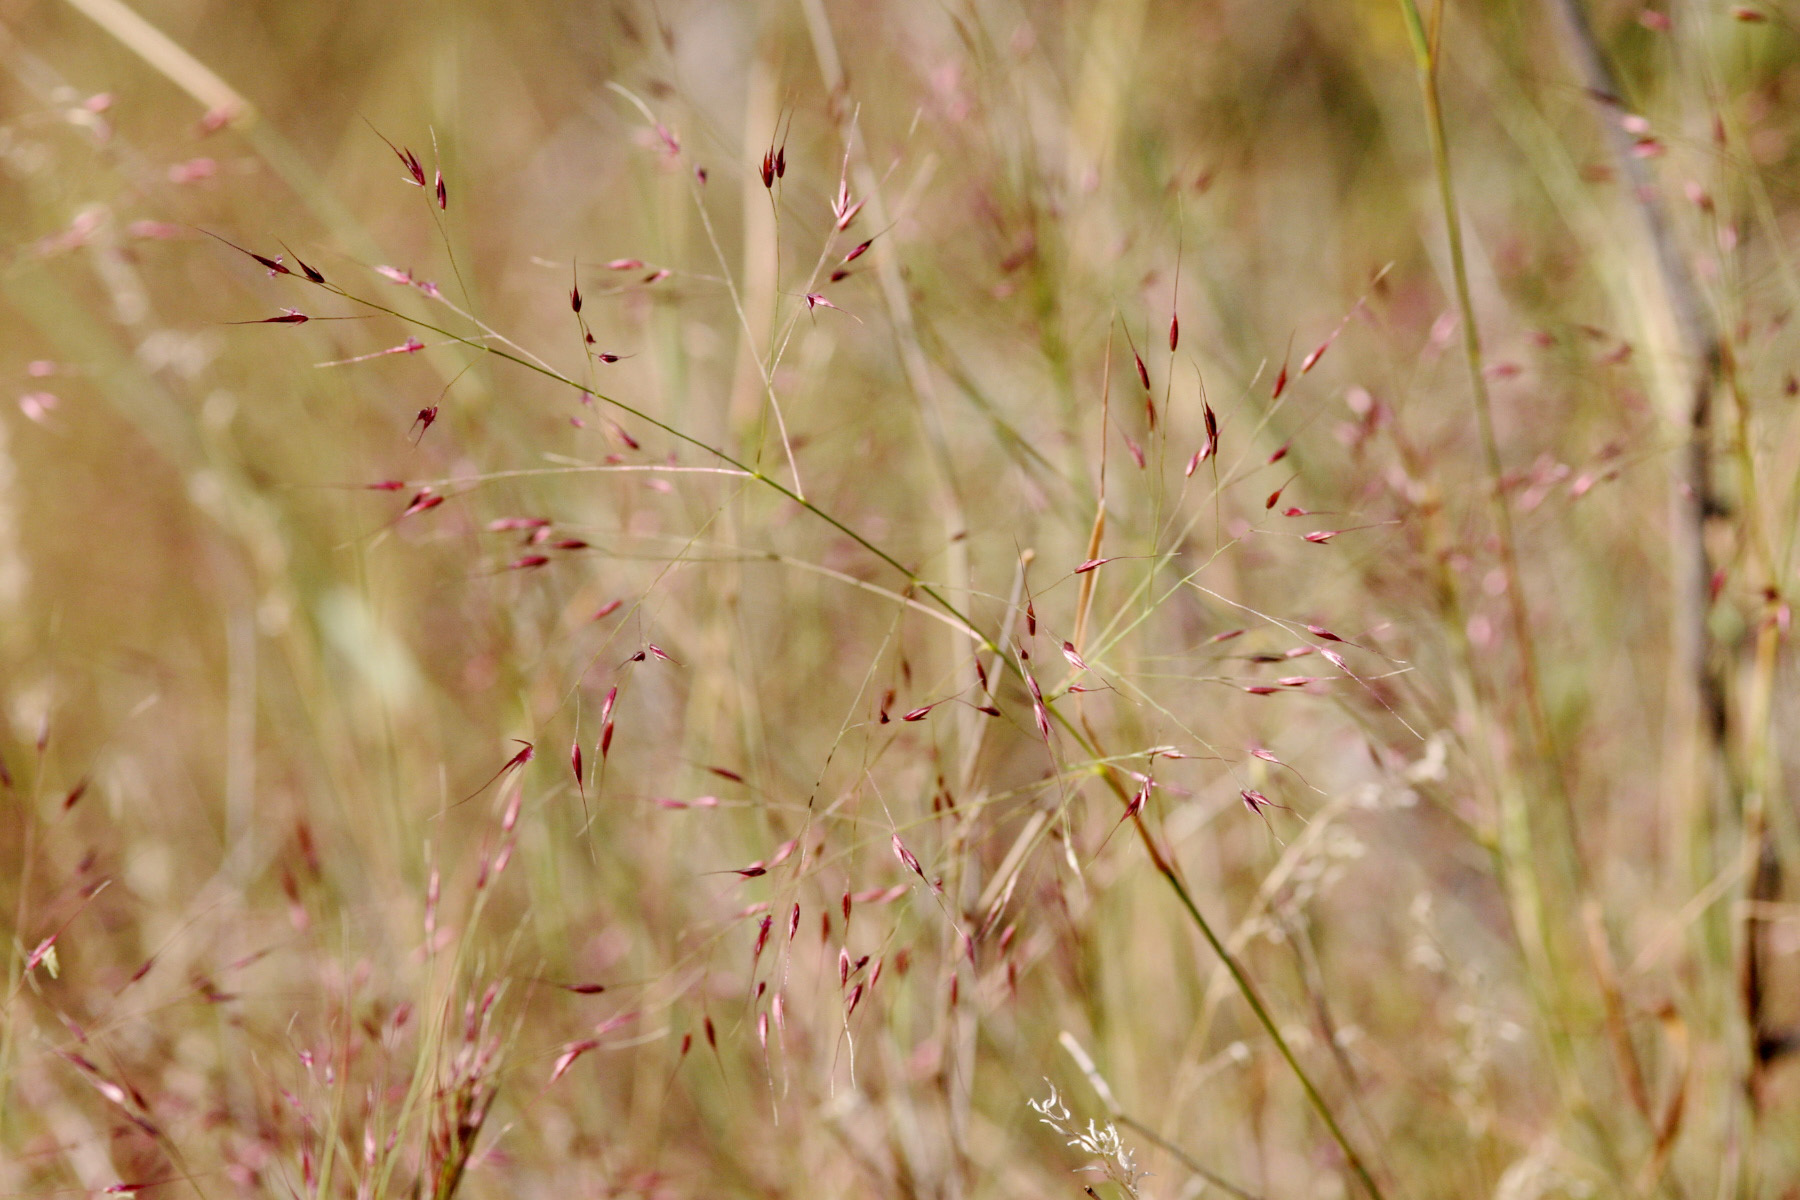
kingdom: Plantae
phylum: Tracheophyta
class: Liliopsida
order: Poales
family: Poaceae
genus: Muhlenbergia
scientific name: Muhlenbergia porteri
